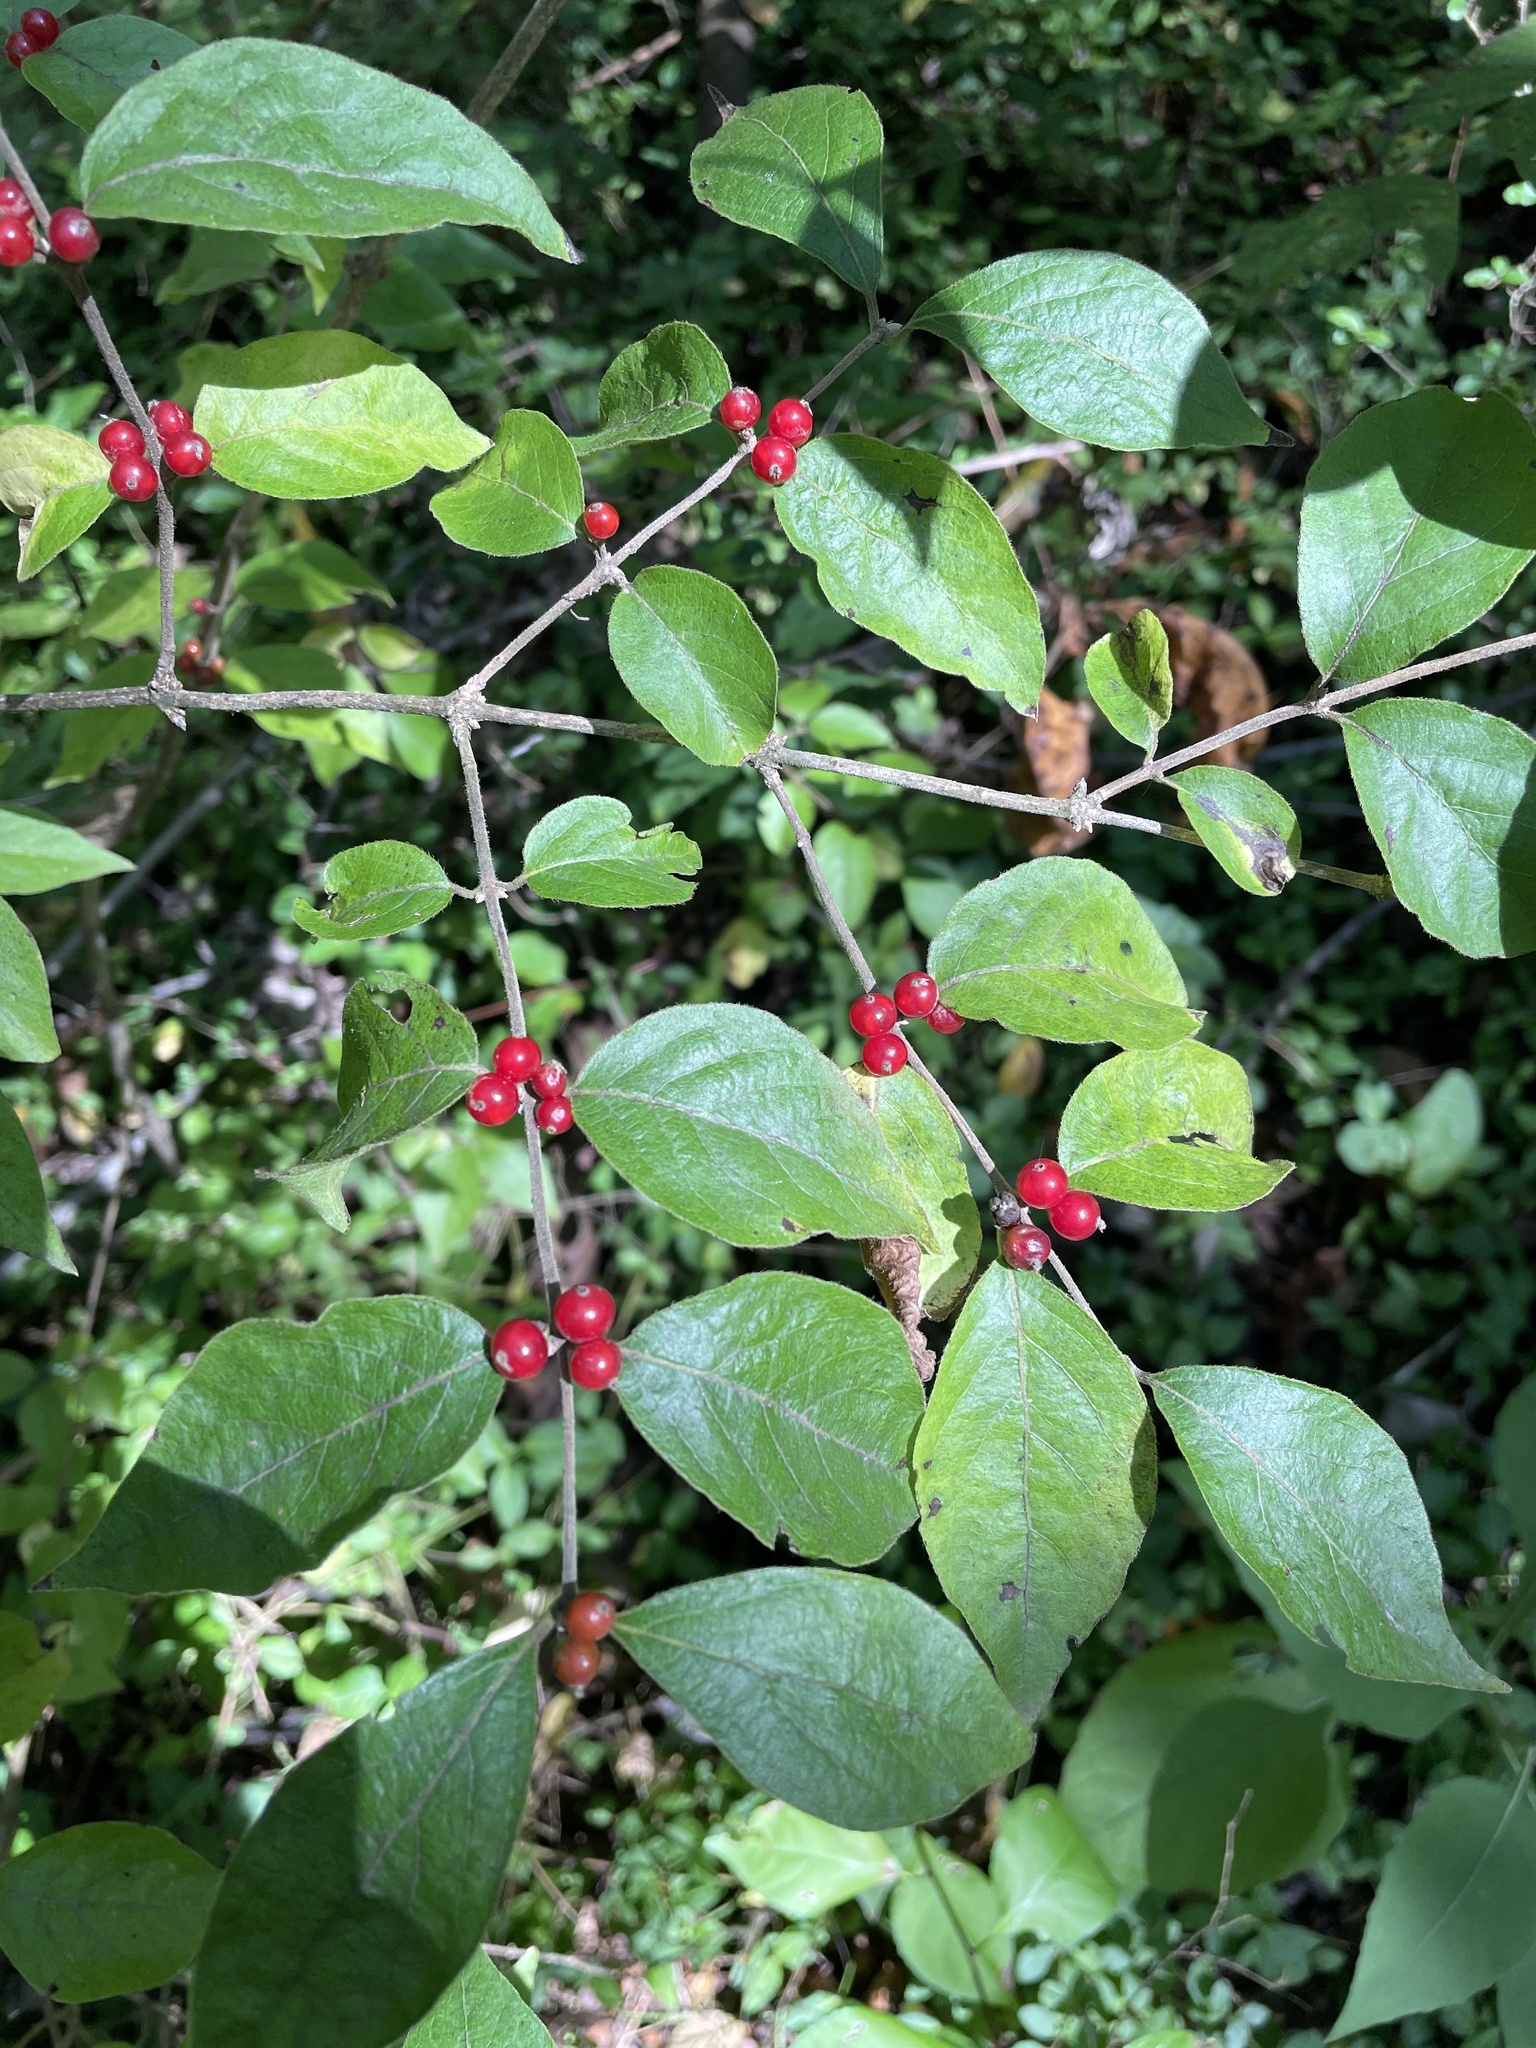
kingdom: Plantae
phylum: Tracheophyta
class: Magnoliopsida
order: Dipsacales
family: Caprifoliaceae
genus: Lonicera
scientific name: Lonicera maackii
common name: Amur honeysuckle
